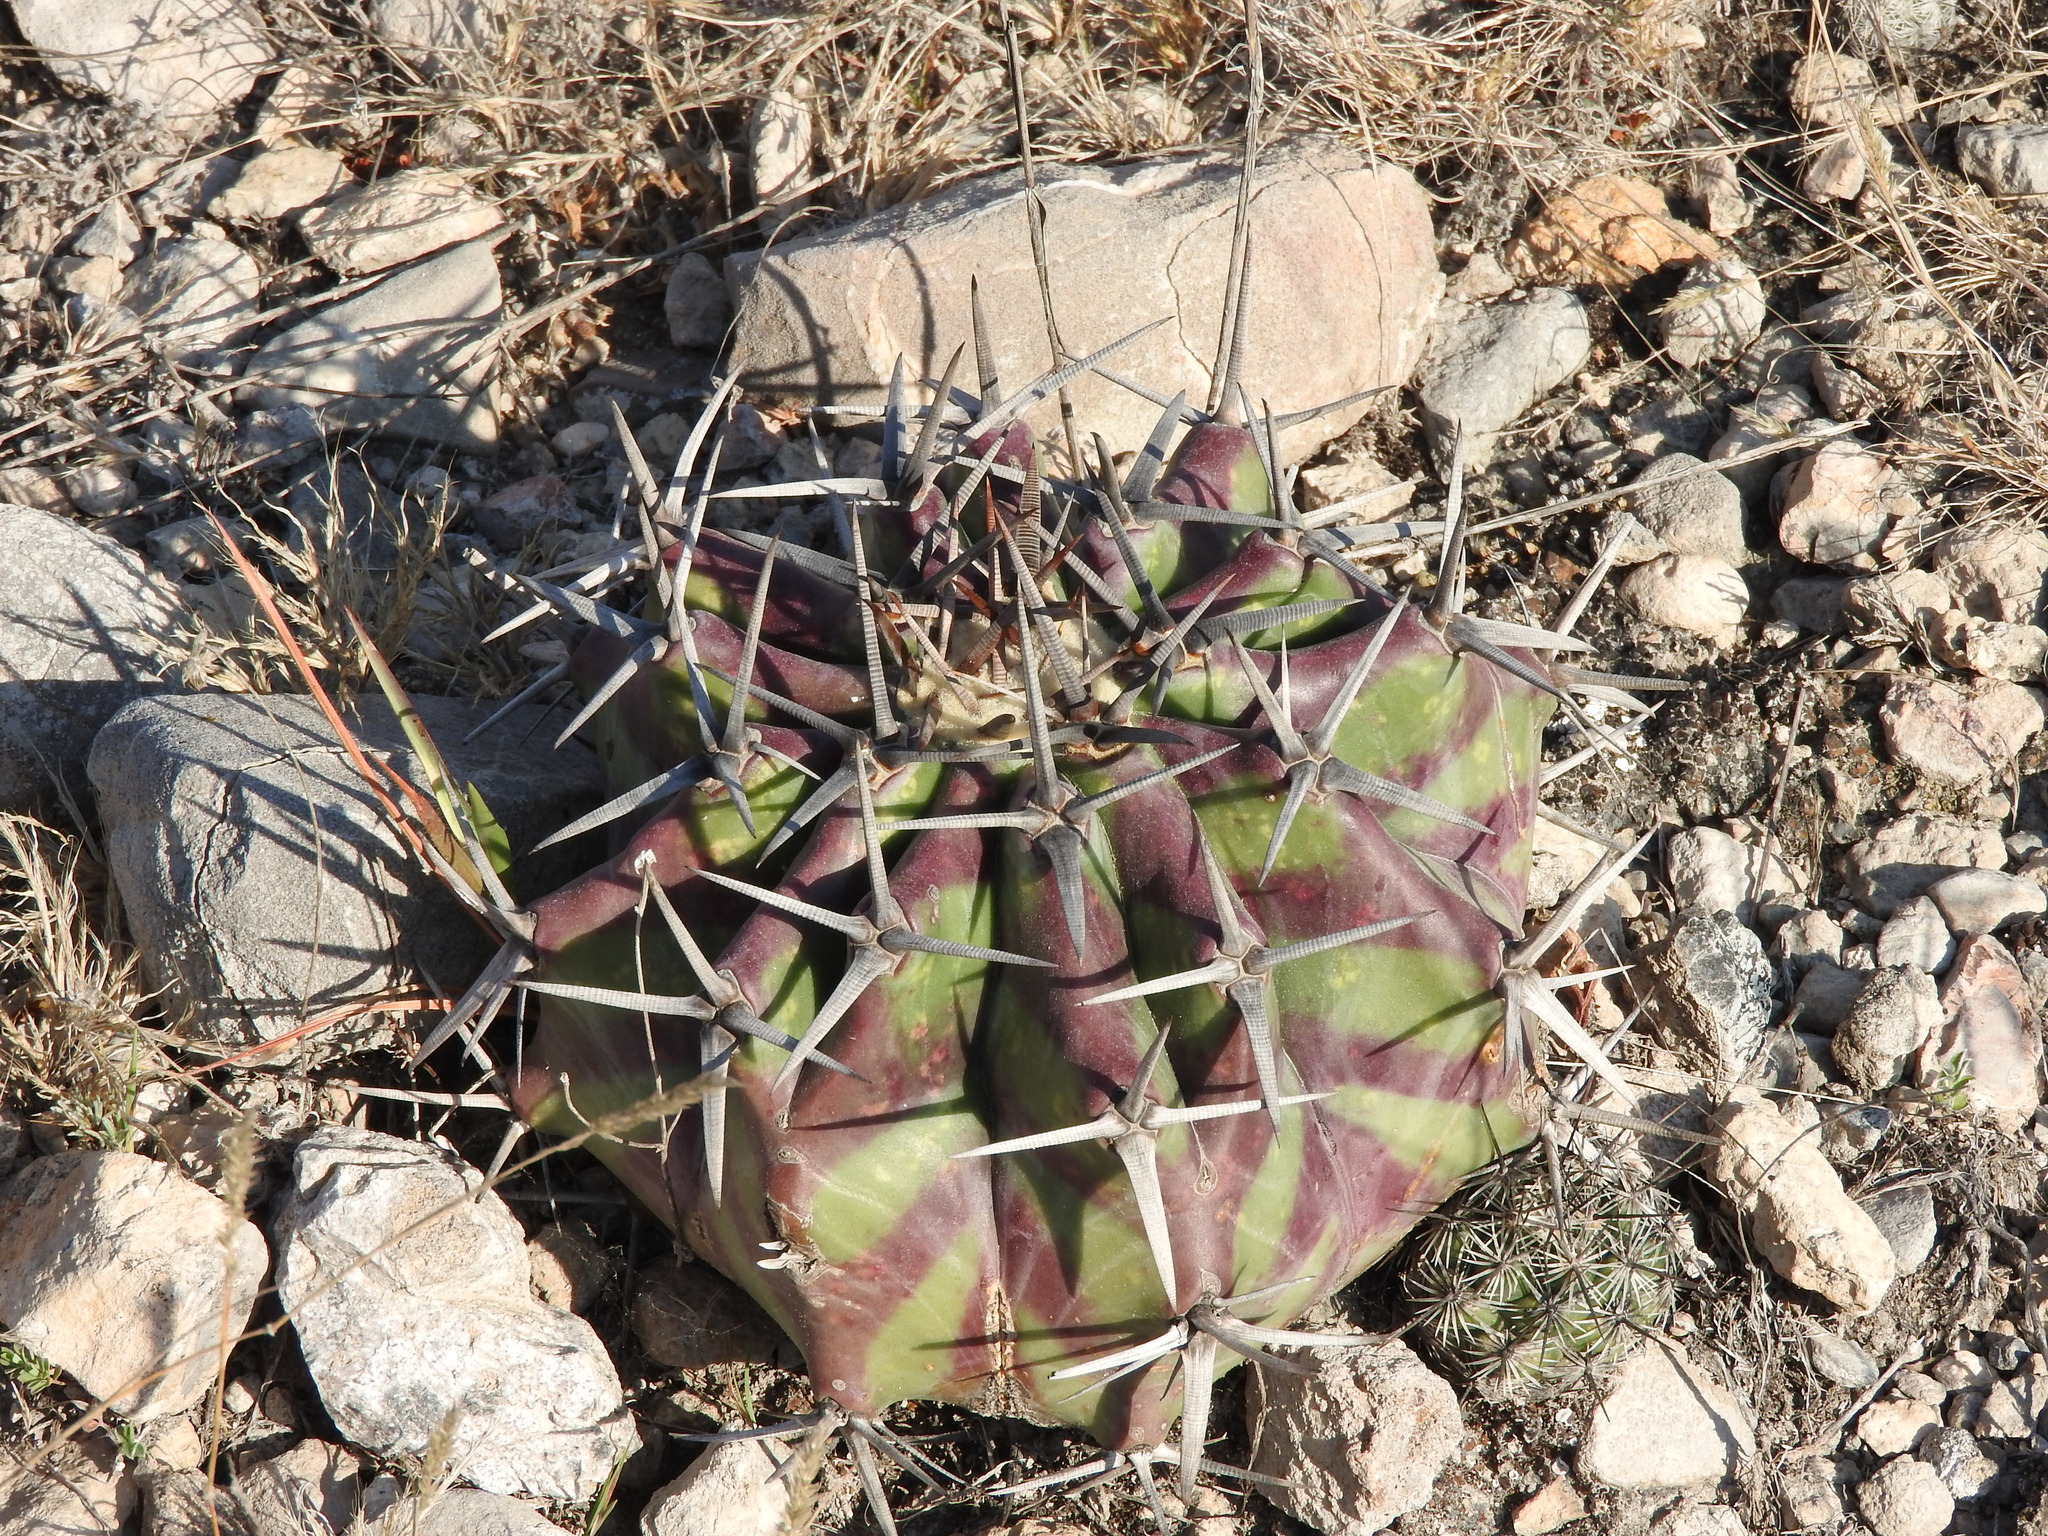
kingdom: Plantae
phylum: Tracheophyta
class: Magnoliopsida
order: Caryophyllales
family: Cactaceae
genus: Echinocactus
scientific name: Echinocactus platyacanthus
